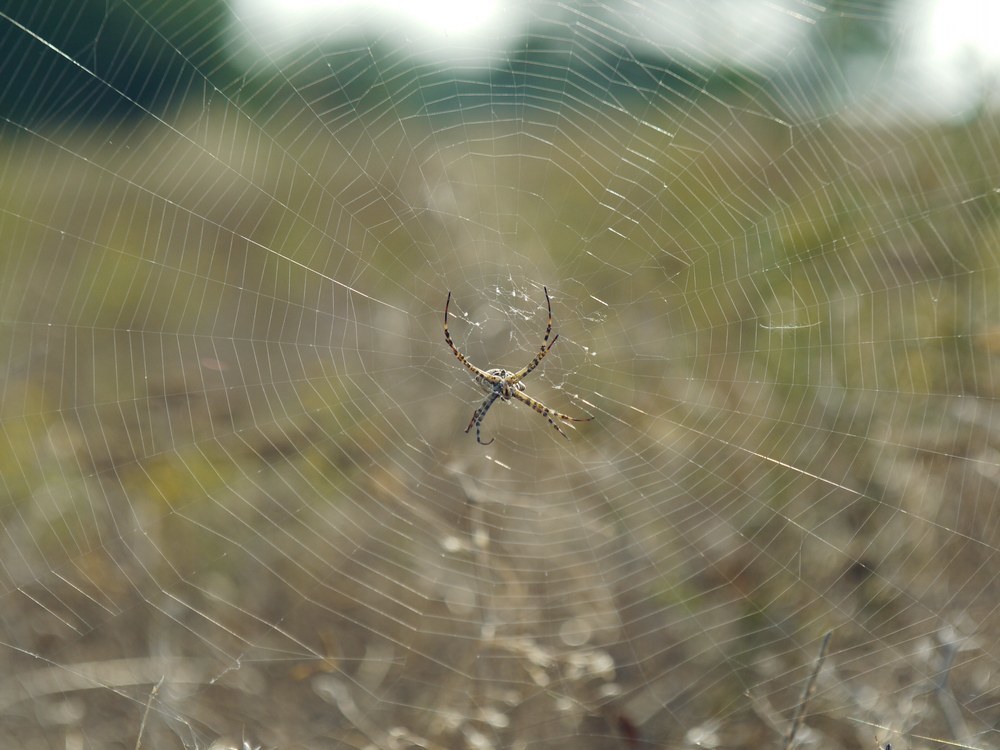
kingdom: Animalia
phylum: Arthropoda
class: Arachnida
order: Araneae
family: Araneidae
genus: Argiope
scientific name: Argiope lobata
